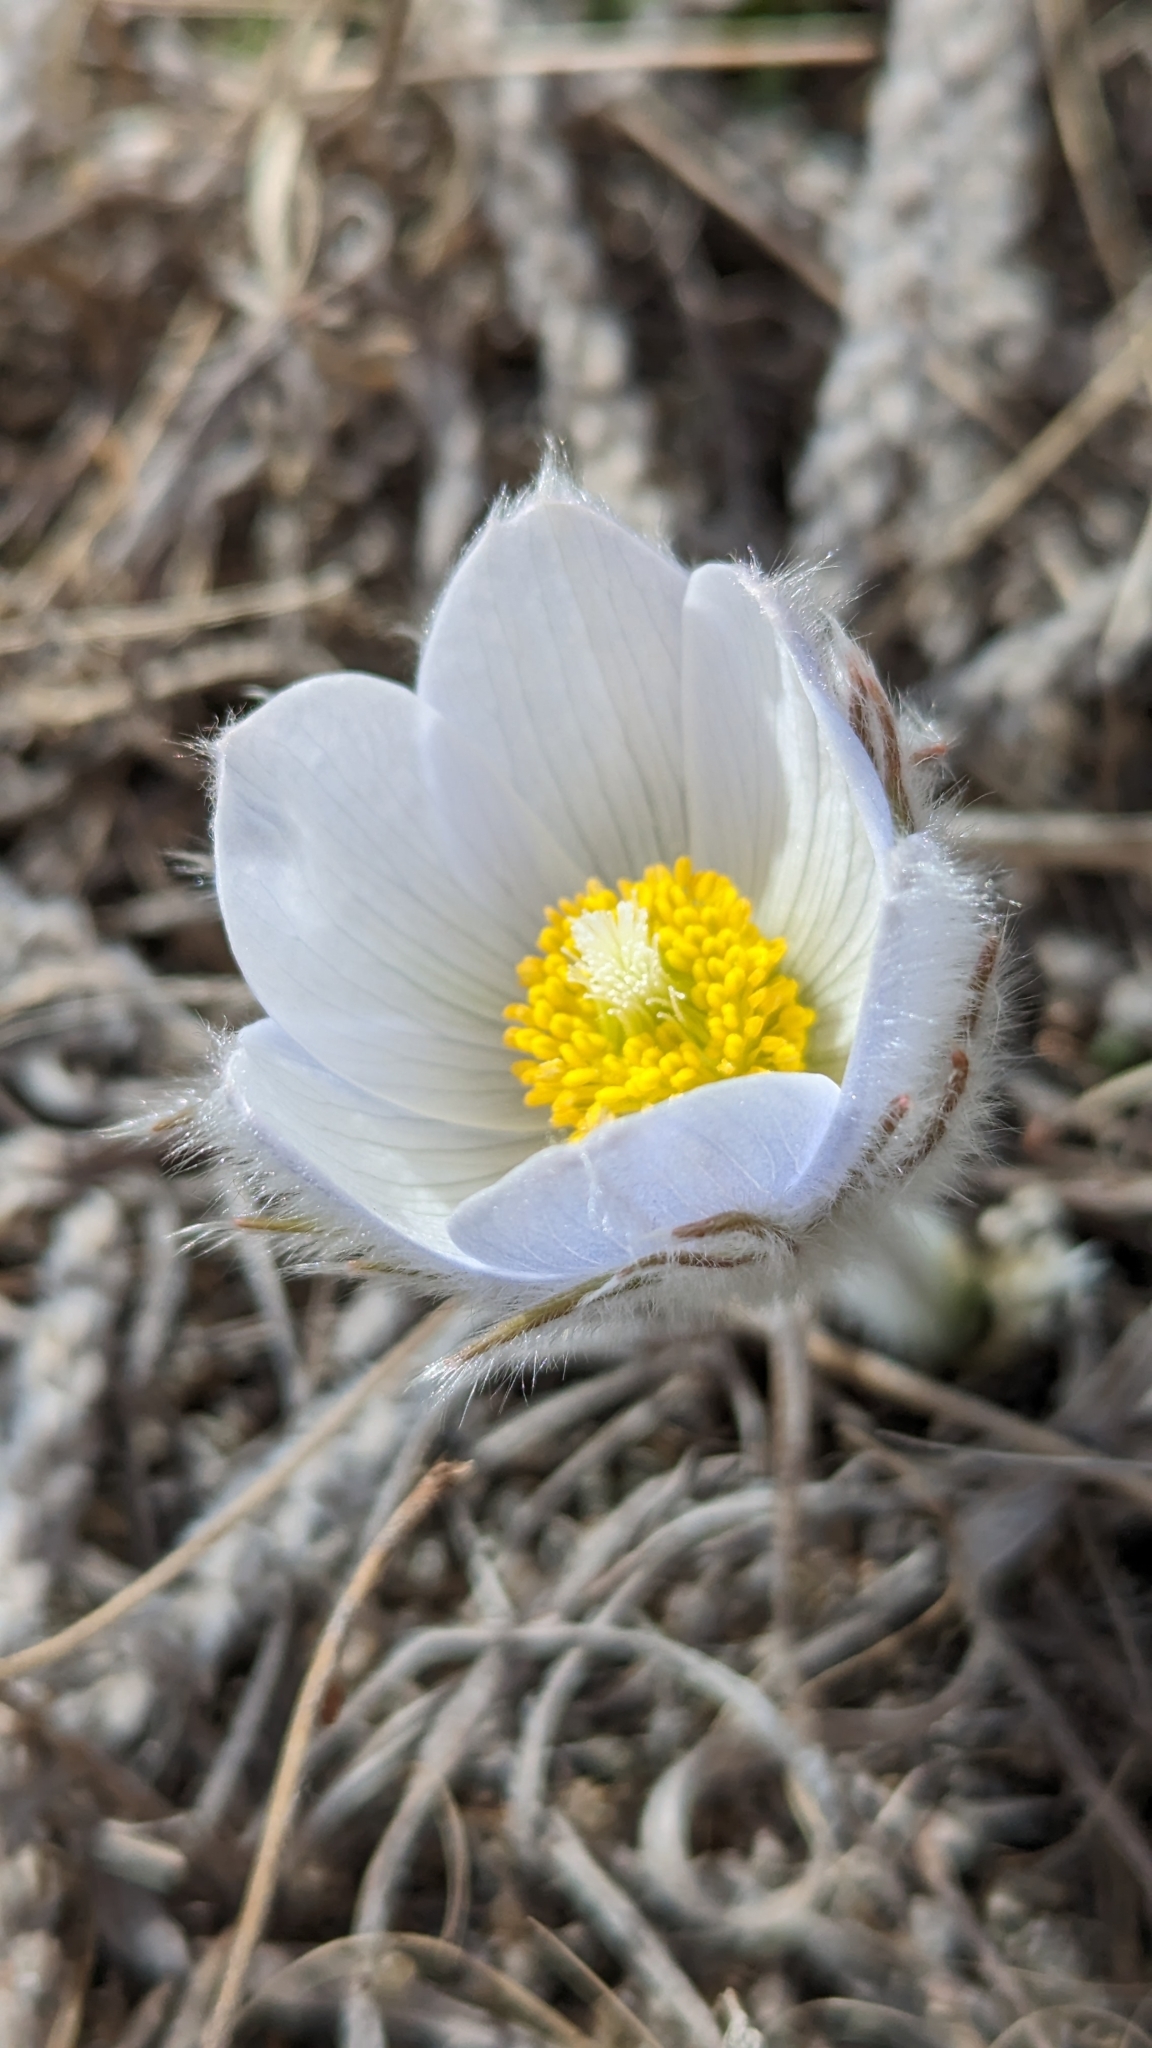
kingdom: Plantae
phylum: Tracheophyta
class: Magnoliopsida
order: Ranunculales
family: Ranunculaceae
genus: Pulsatilla
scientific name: Pulsatilla nuttalliana
